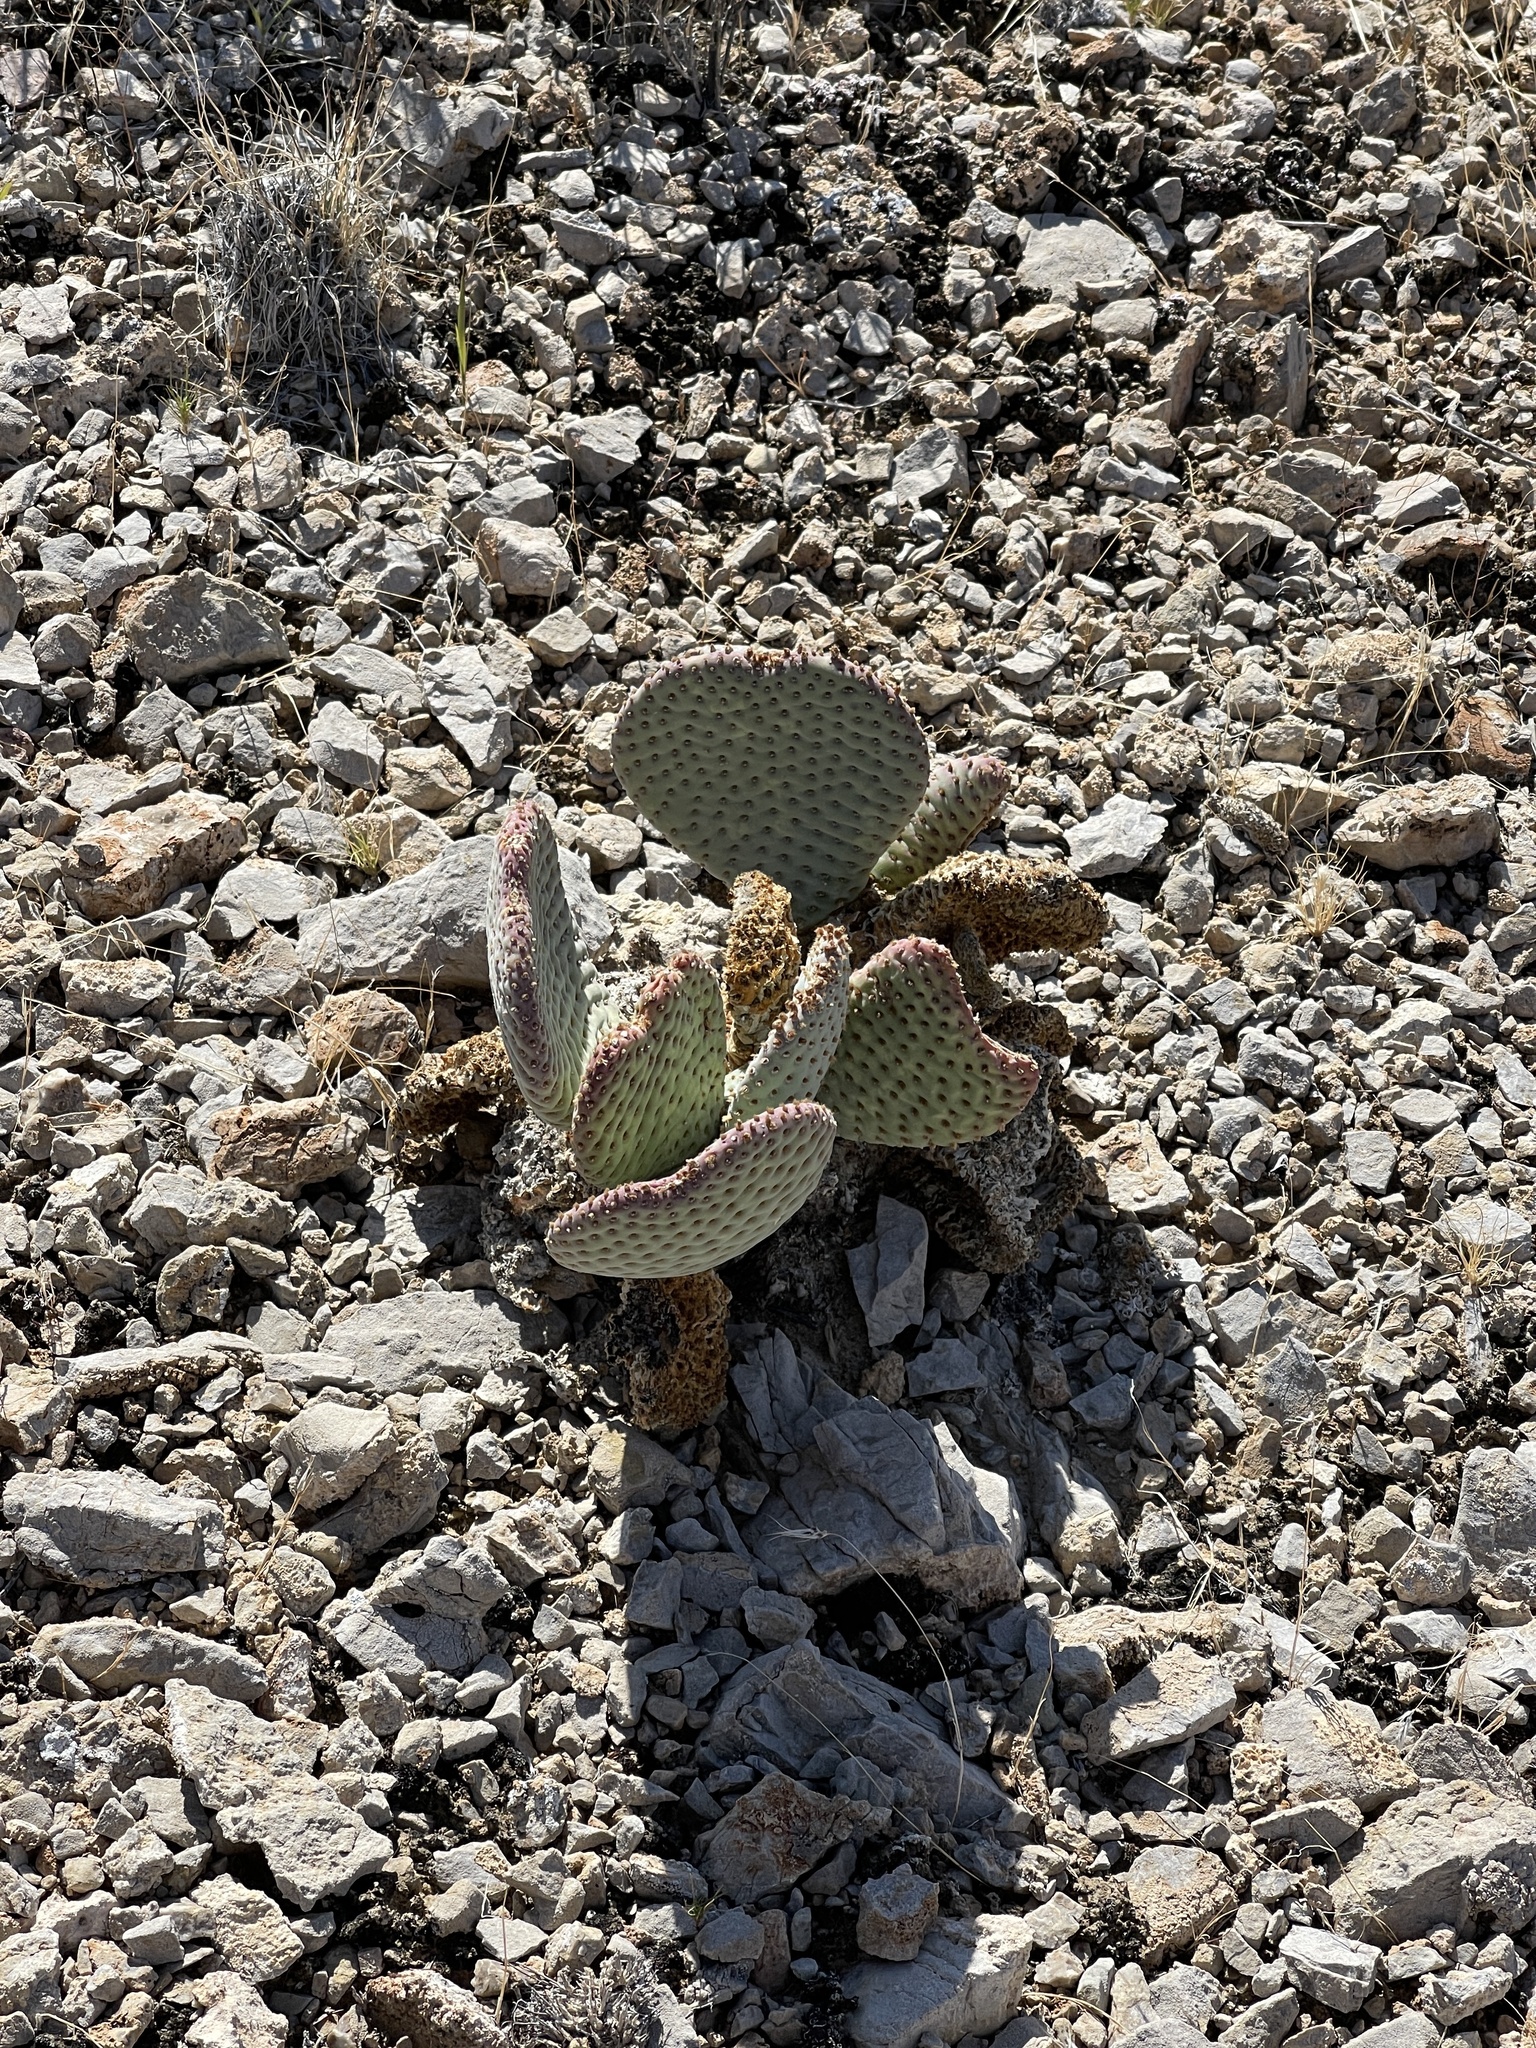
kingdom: Plantae
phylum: Tracheophyta
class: Magnoliopsida
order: Caryophyllales
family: Cactaceae
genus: Opuntia
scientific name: Opuntia basilaris
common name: Beavertail prickly-pear
